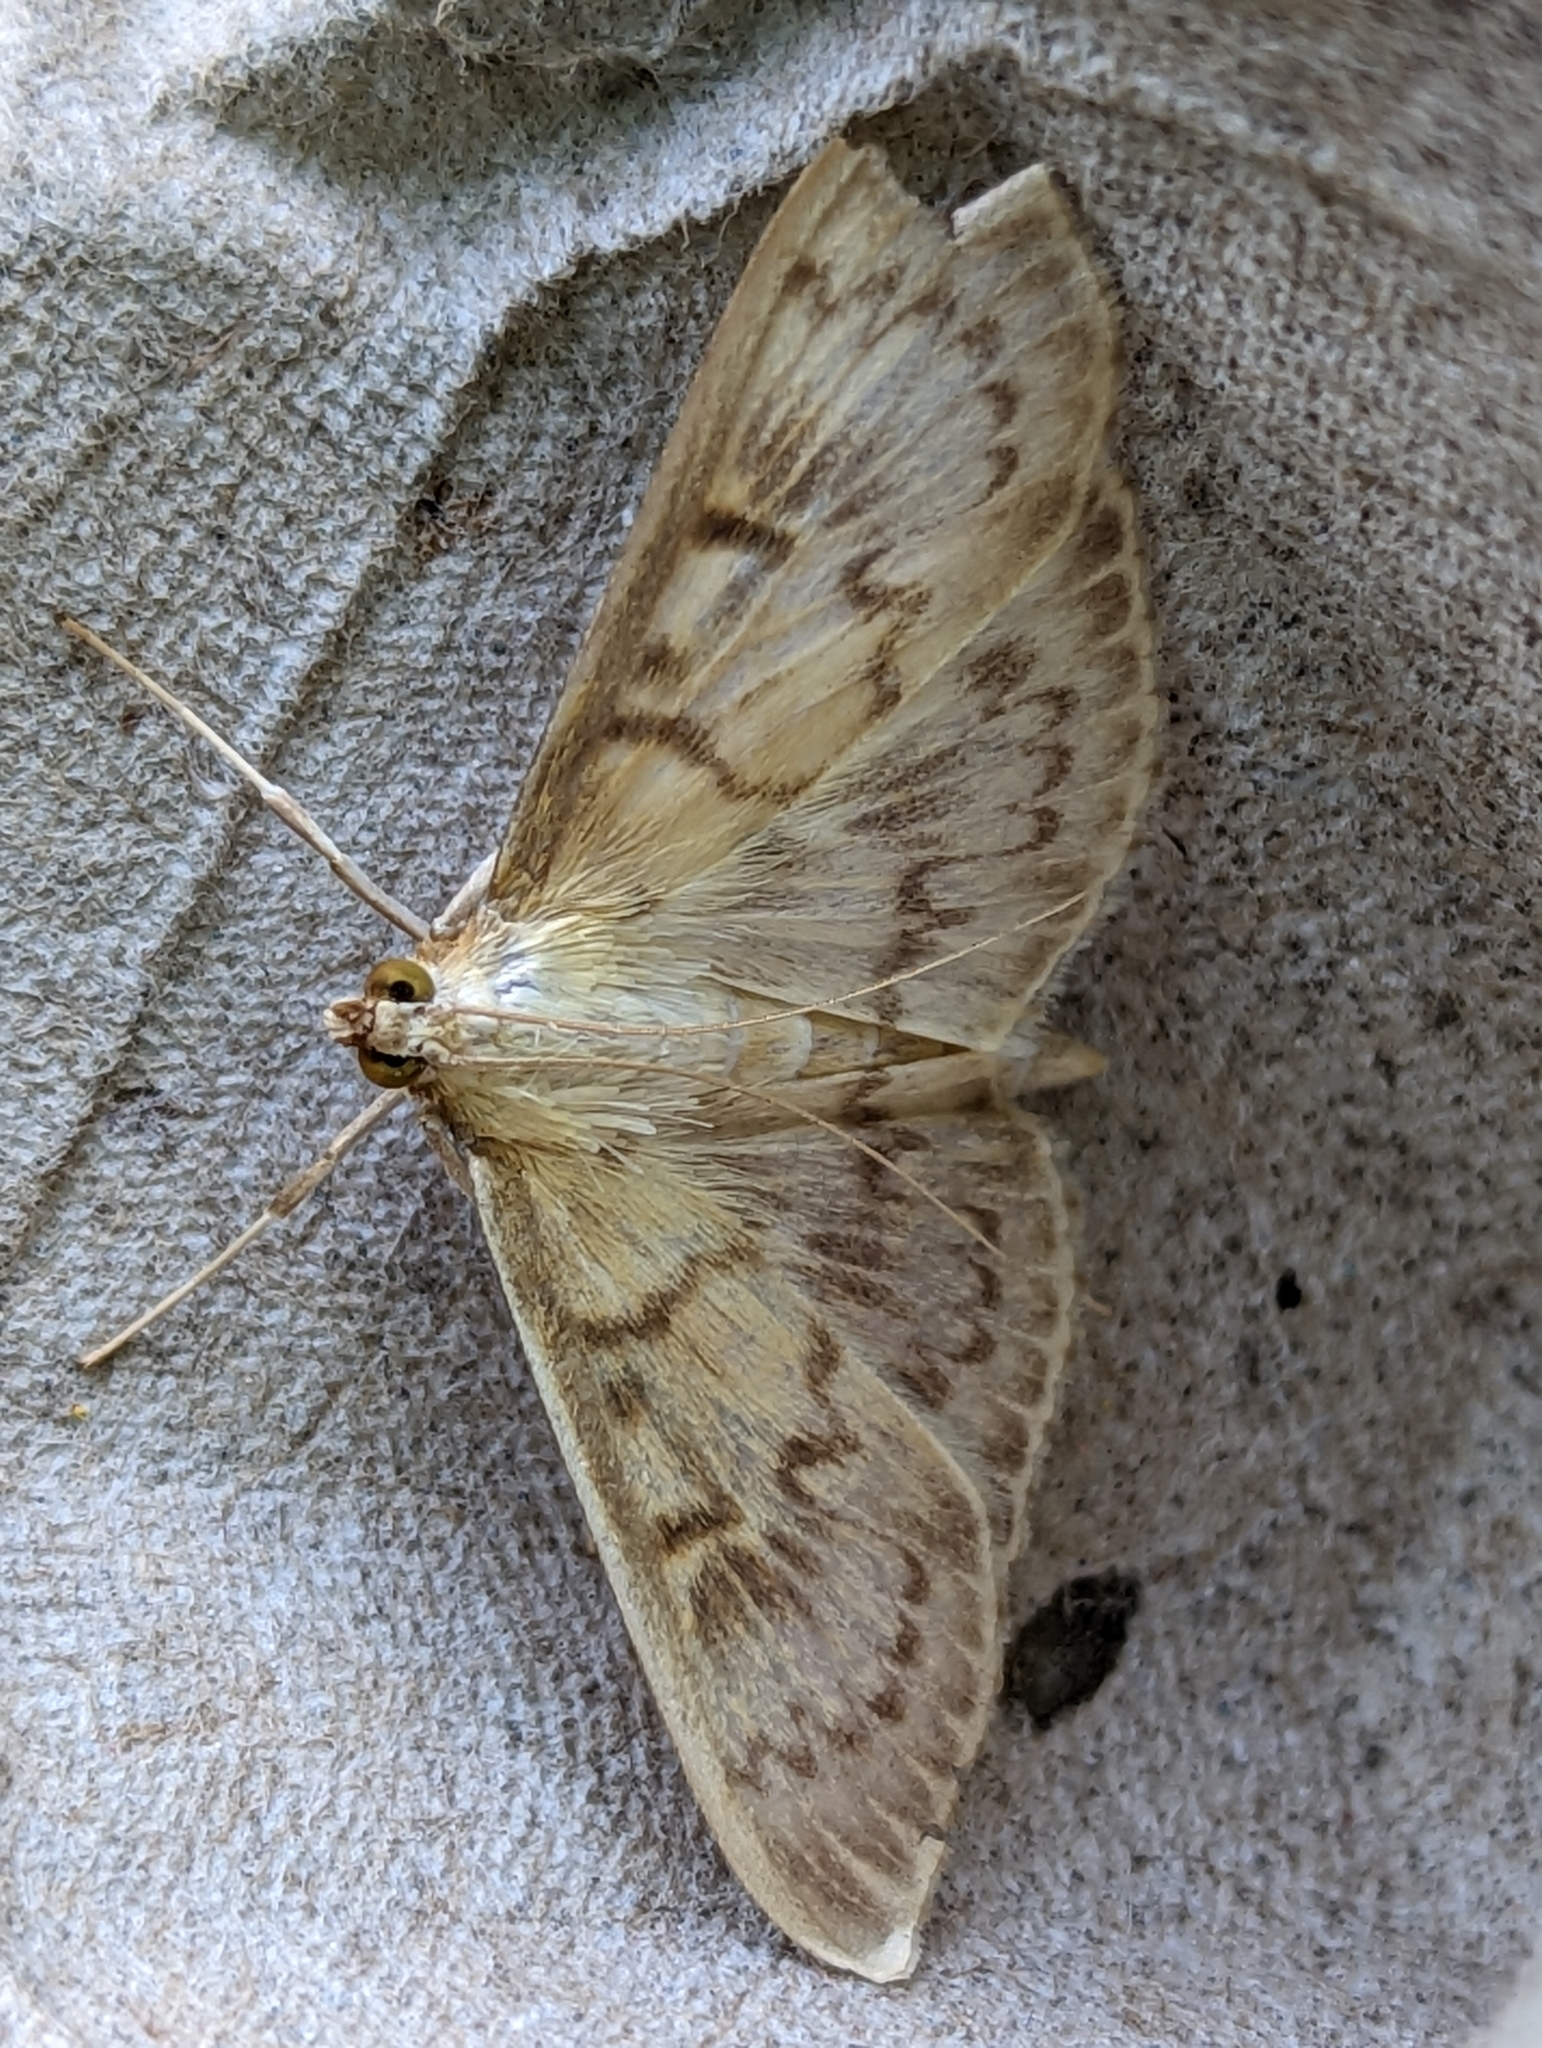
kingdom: Animalia
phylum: Arthropoda
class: Insecta
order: Lepidoptera
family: Crambidae
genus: Patania
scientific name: Patania ruralis
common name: Mother of pearl
